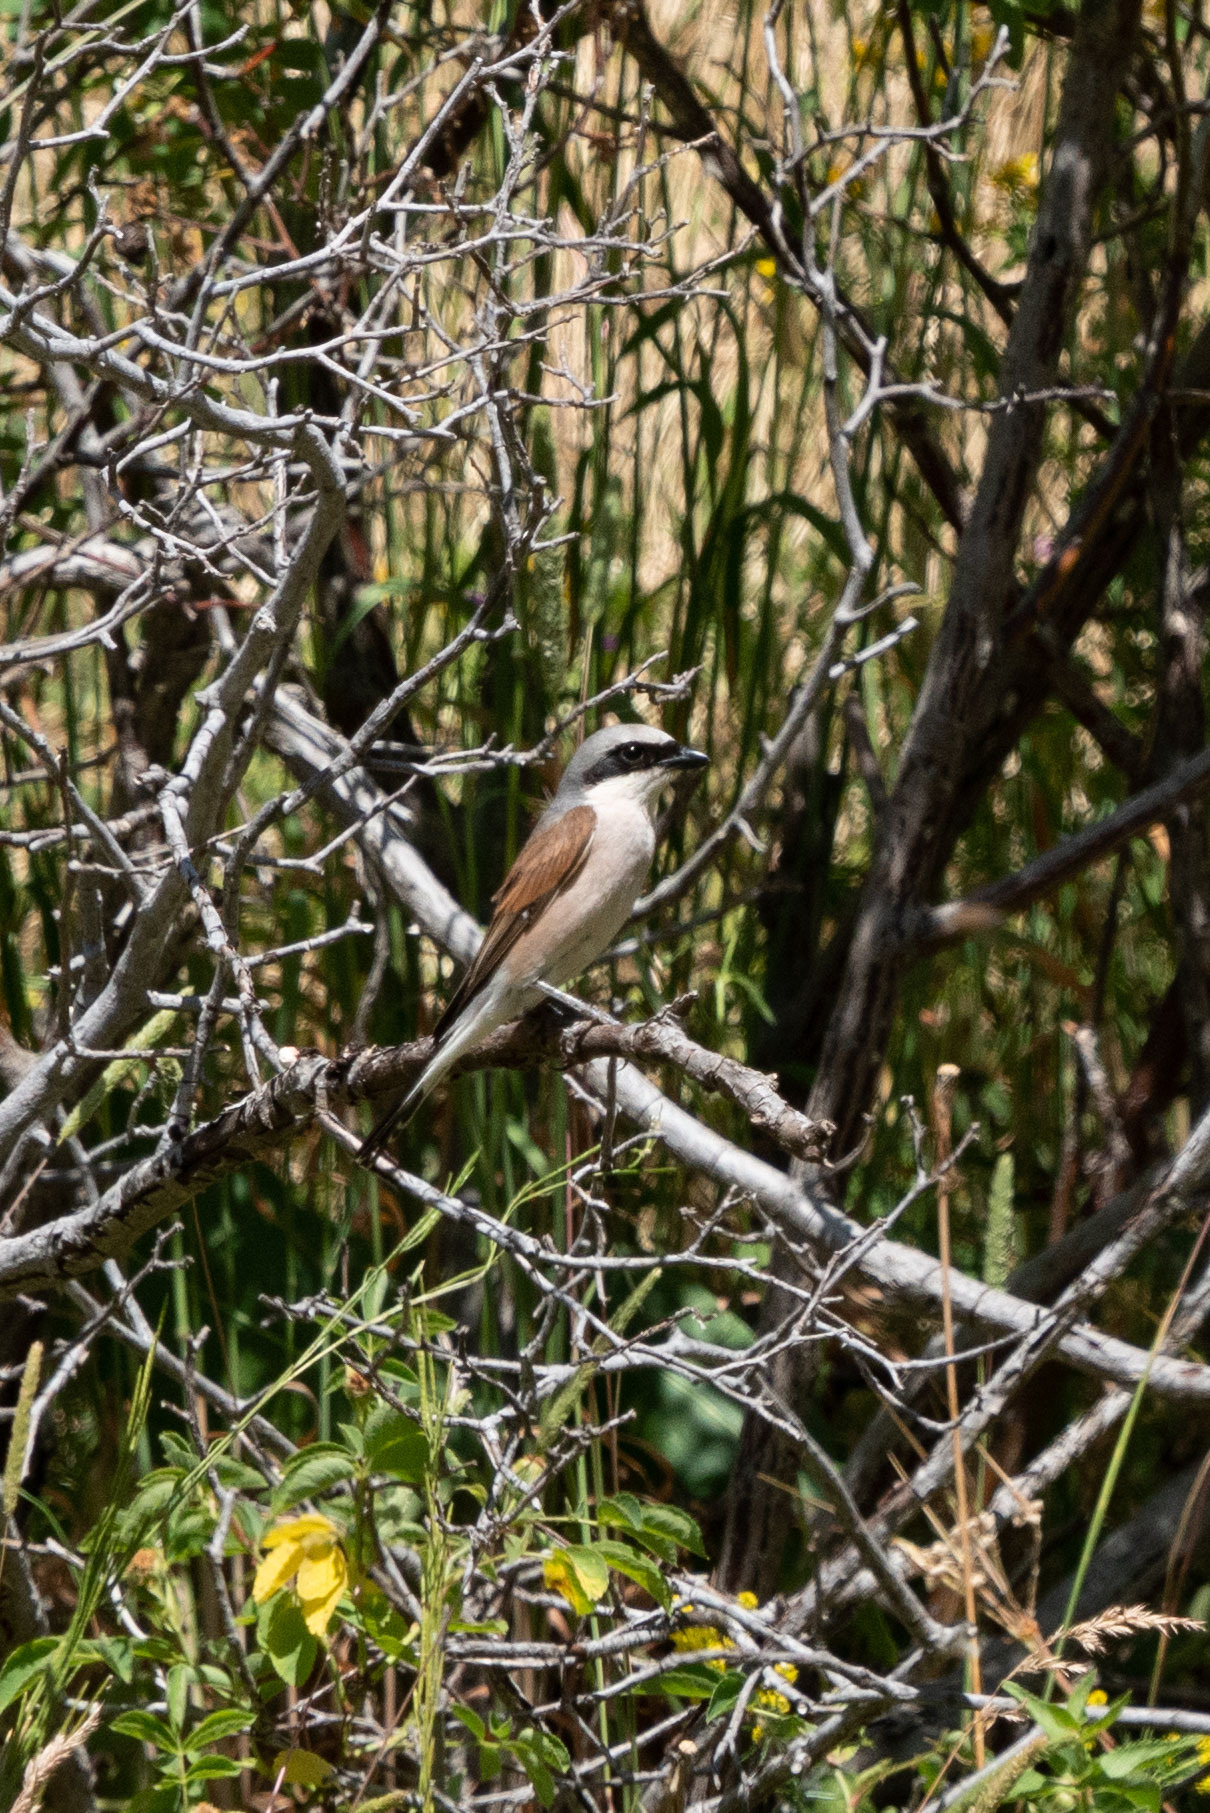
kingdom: Animalia
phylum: Chordata
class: Aves
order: Passeriformes
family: Laniidae
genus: Lanius
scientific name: Lanius collurio
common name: Red-backed shrike
